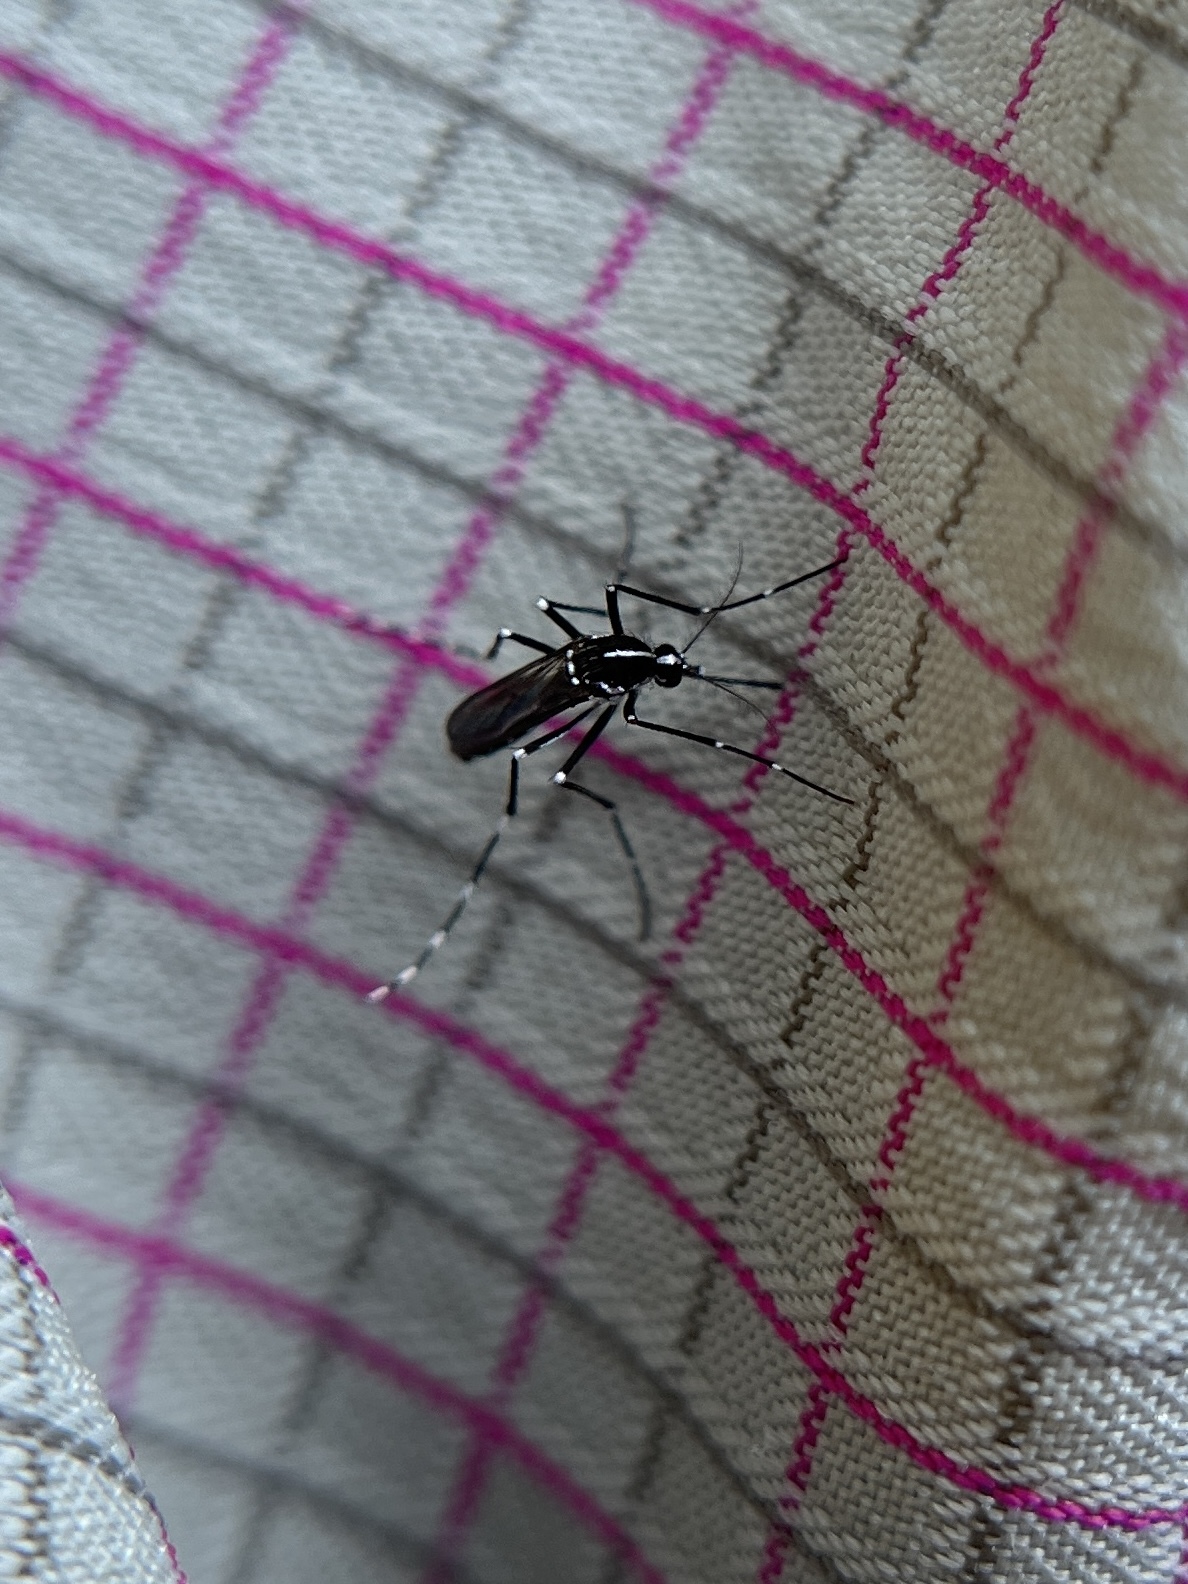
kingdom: Animalia
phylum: Arthropoda
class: Insecta
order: Diptera
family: Culicidae
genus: Aedes
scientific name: Aedes albopictus
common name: Tiger mosquito
